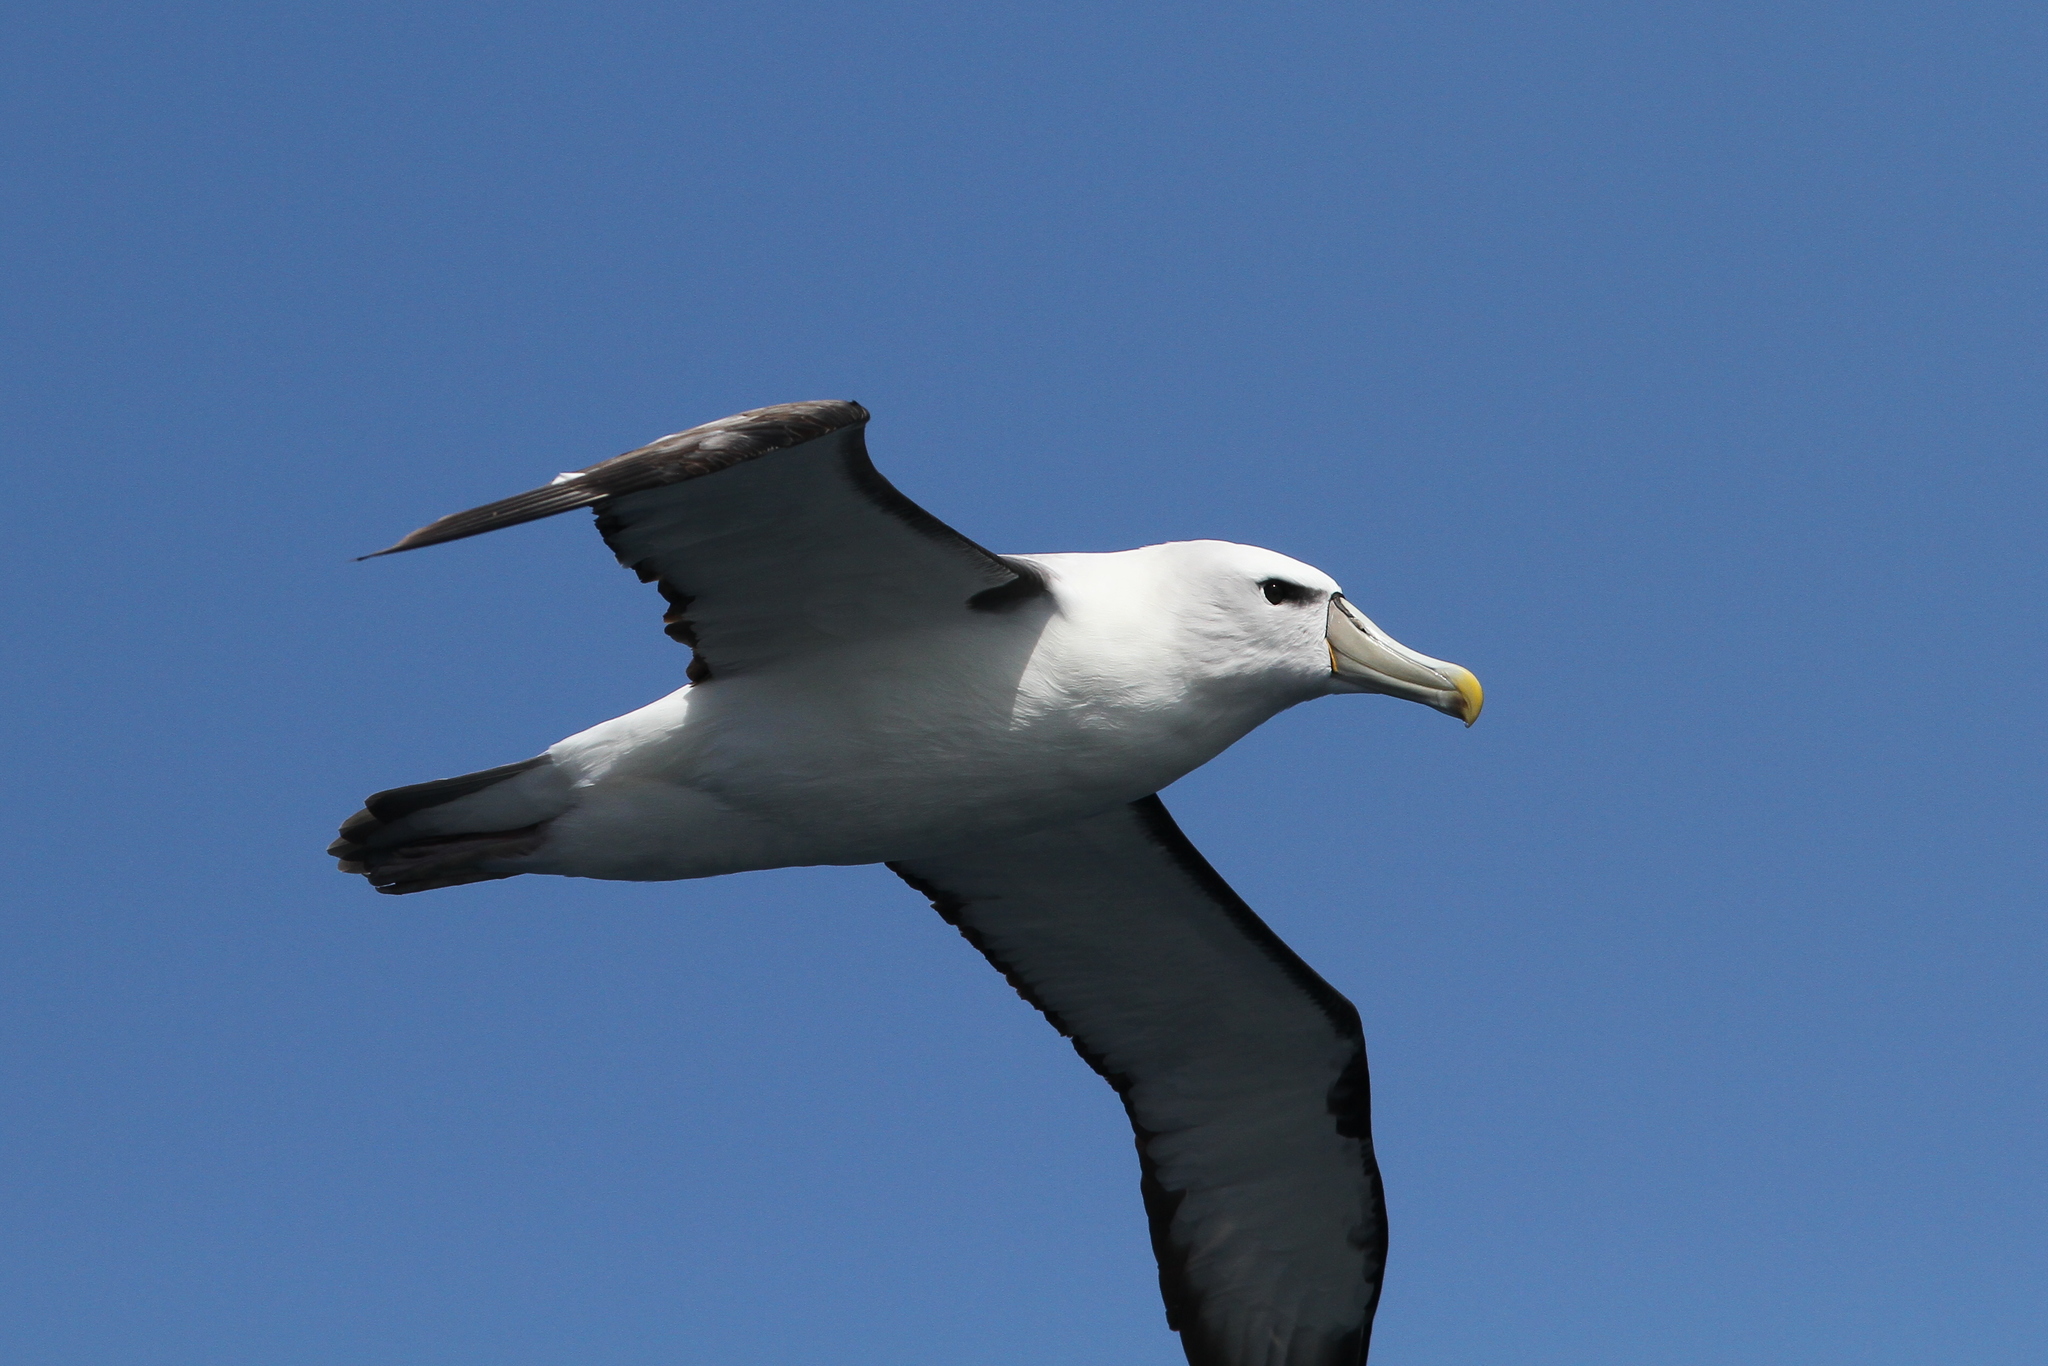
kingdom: Animalia
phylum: Chordata
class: Aves
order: Procellariiformes
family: Diomedeidae
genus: Thalassarche
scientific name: Thalassarche cauta
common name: Shy albatross
